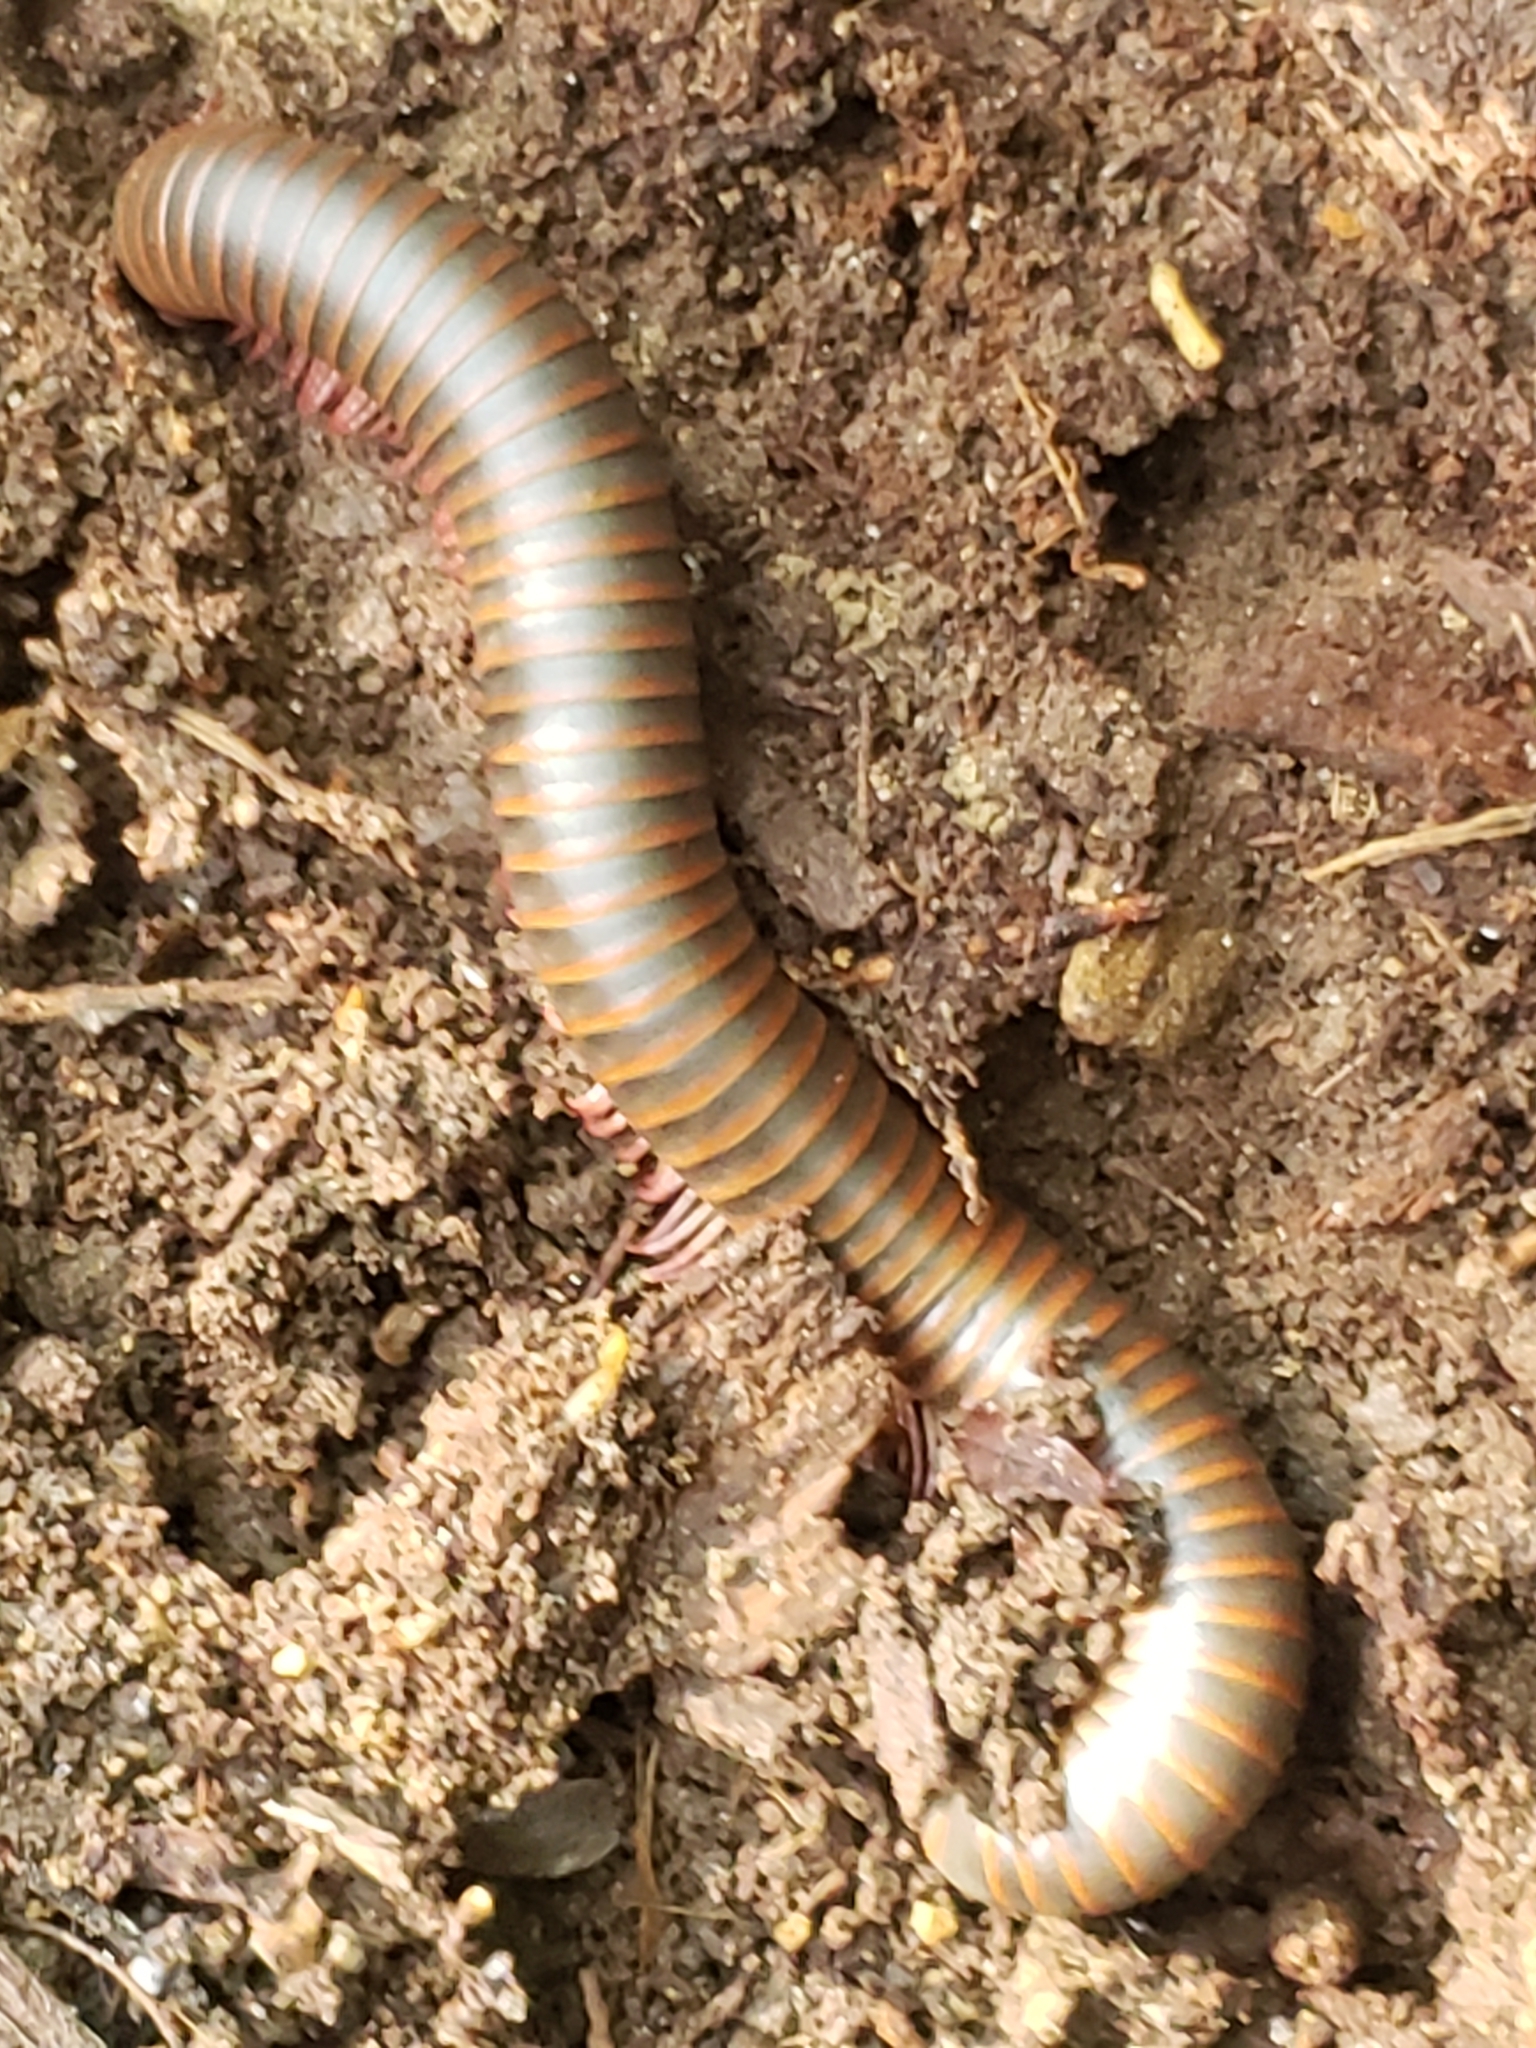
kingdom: Animalia
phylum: Arthropoda
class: Diplopoda
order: Spirobolida
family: Spirobolidae
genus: Narceus
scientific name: Narceus
